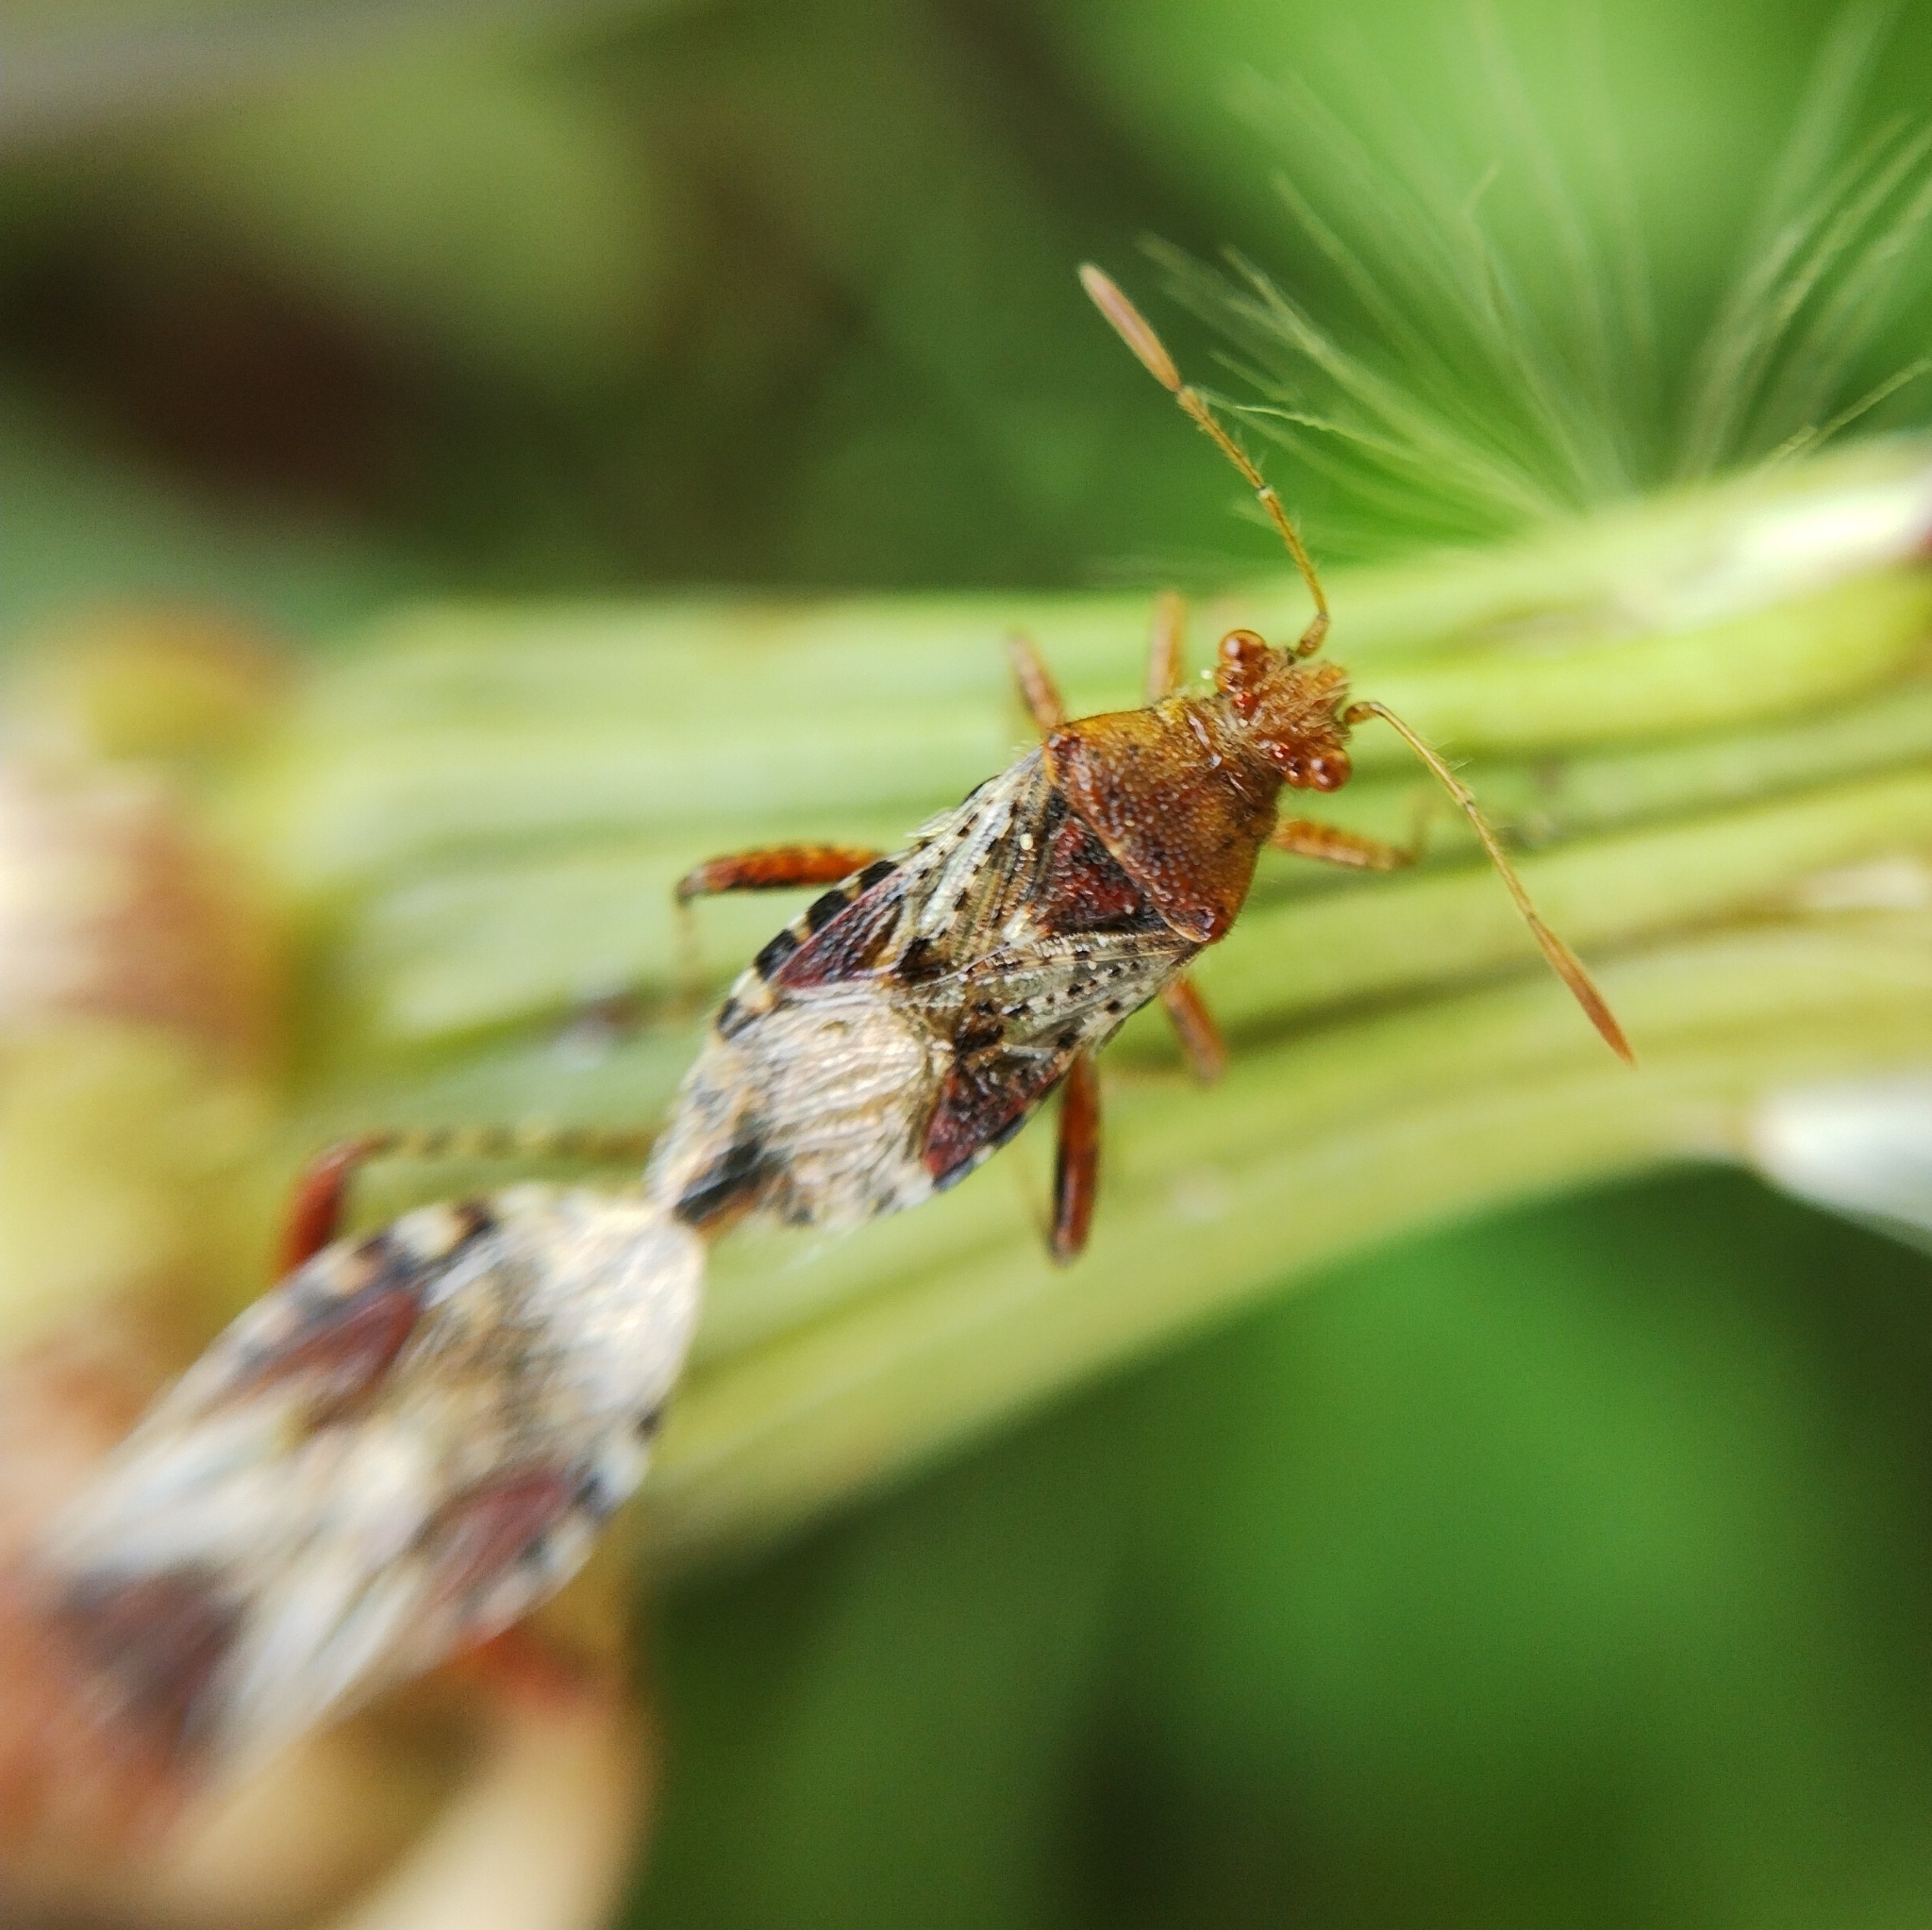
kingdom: Animalia
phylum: Arthropoda
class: Insecta
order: Hemiptera
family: Rhopalidae
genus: Rhopalus
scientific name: Rhopalus subrufus
